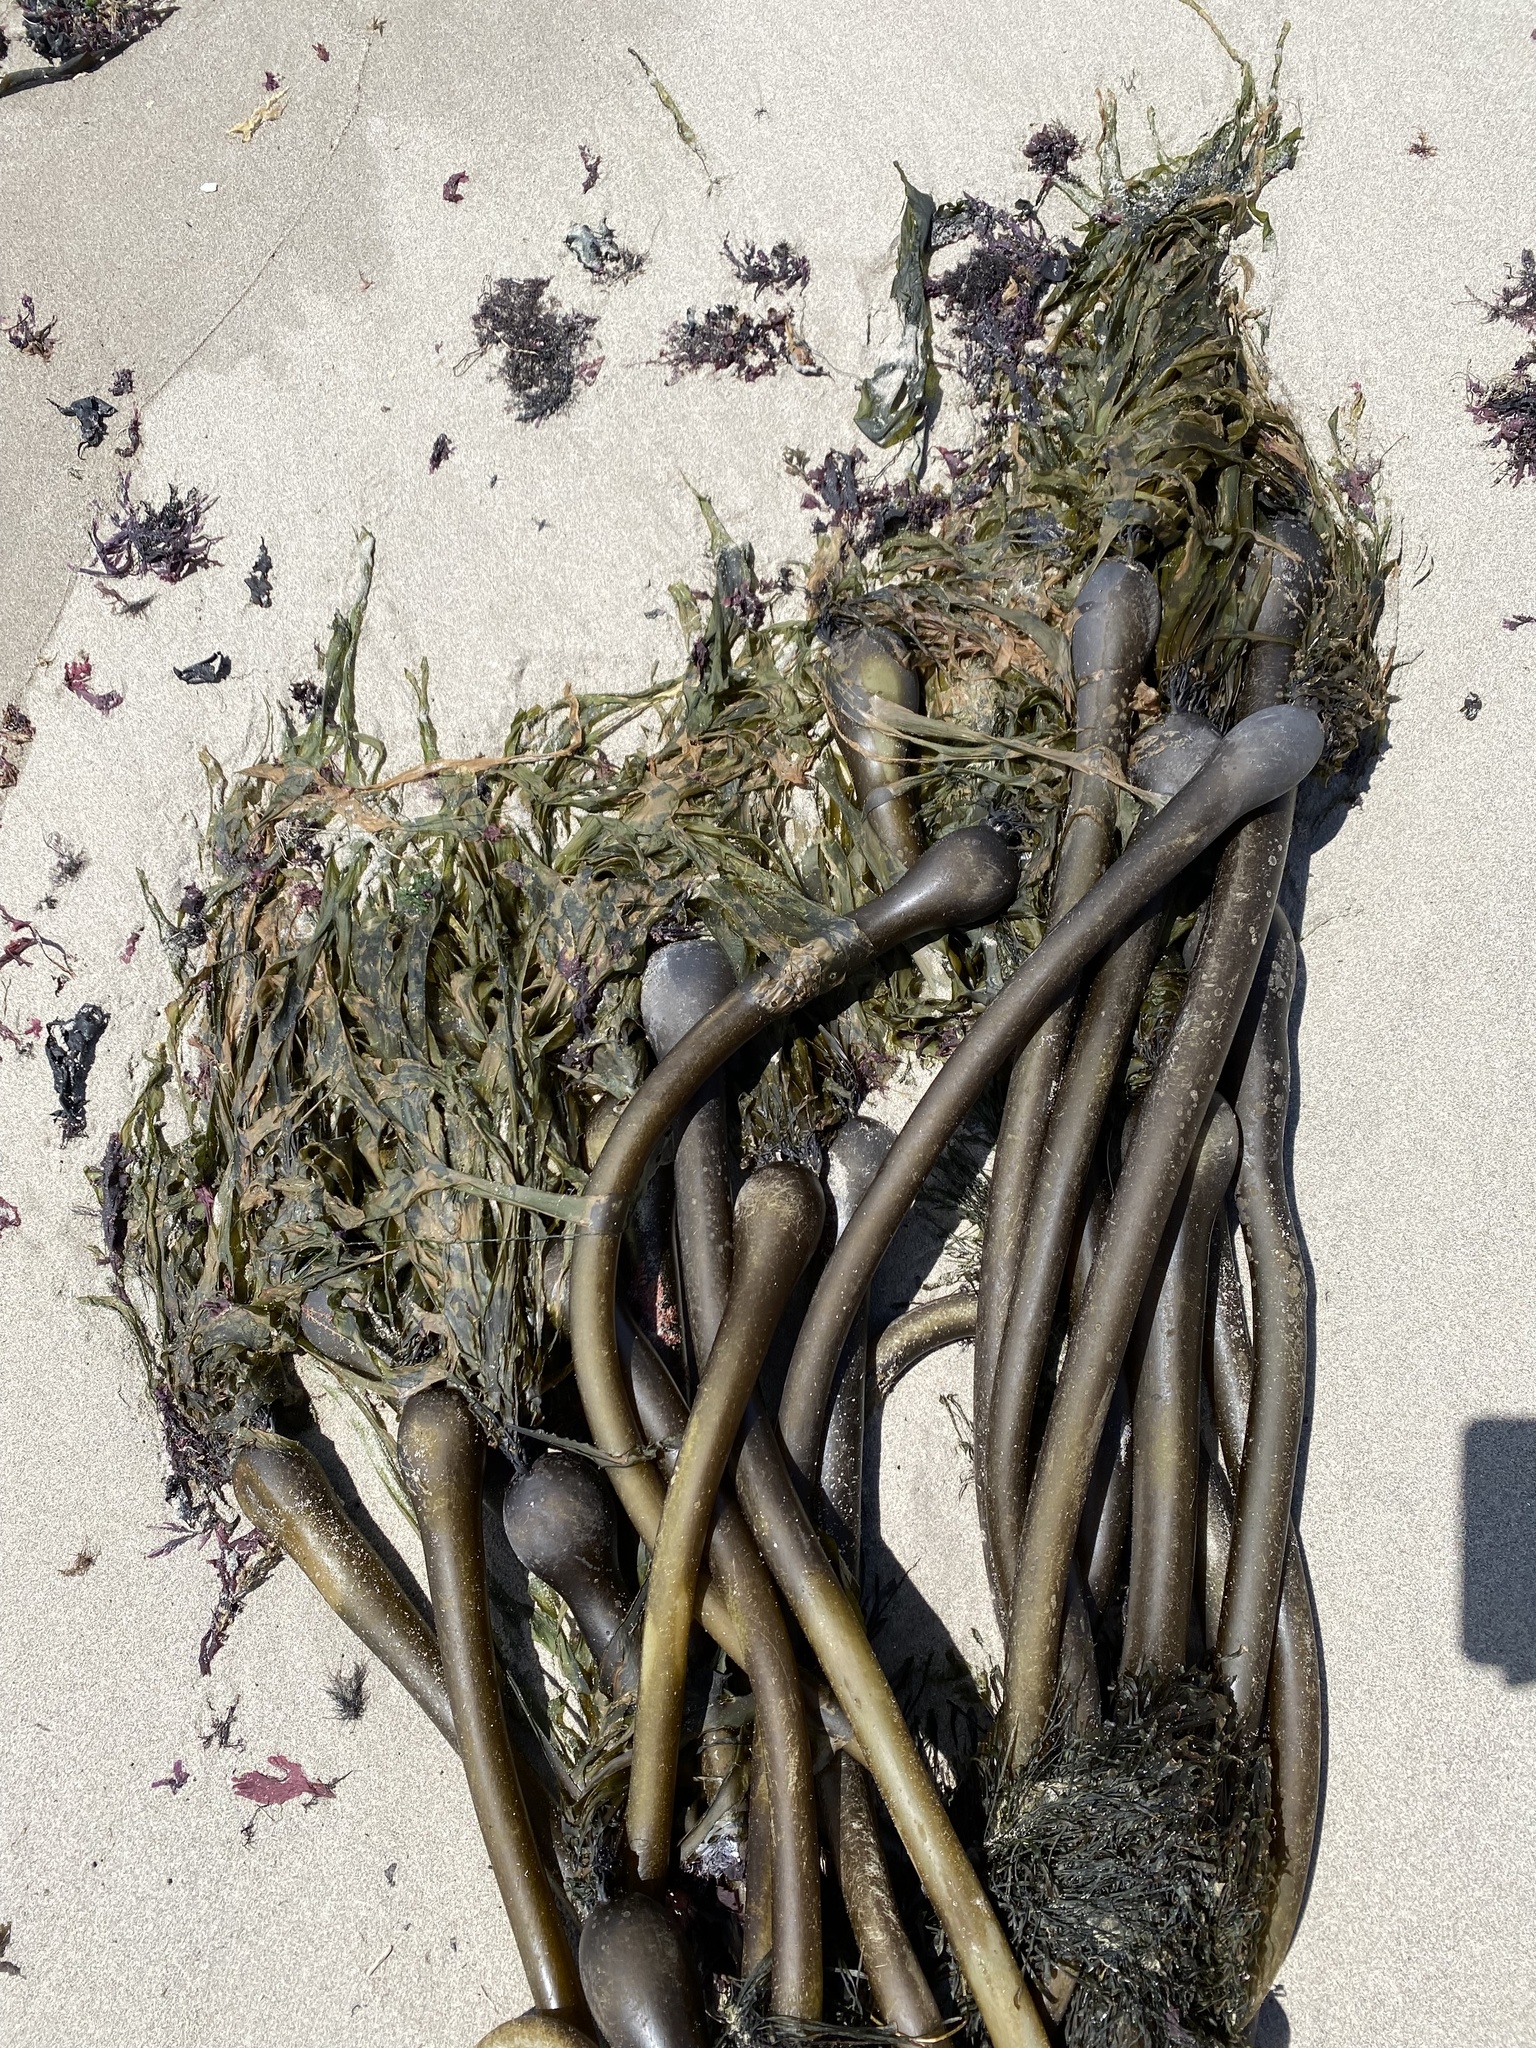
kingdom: Chromista
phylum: Ochrophyta
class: Phaeophyceae
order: Laminariales
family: Laminariaceae
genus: Nereocystis
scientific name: Nereocystis luetkeana
